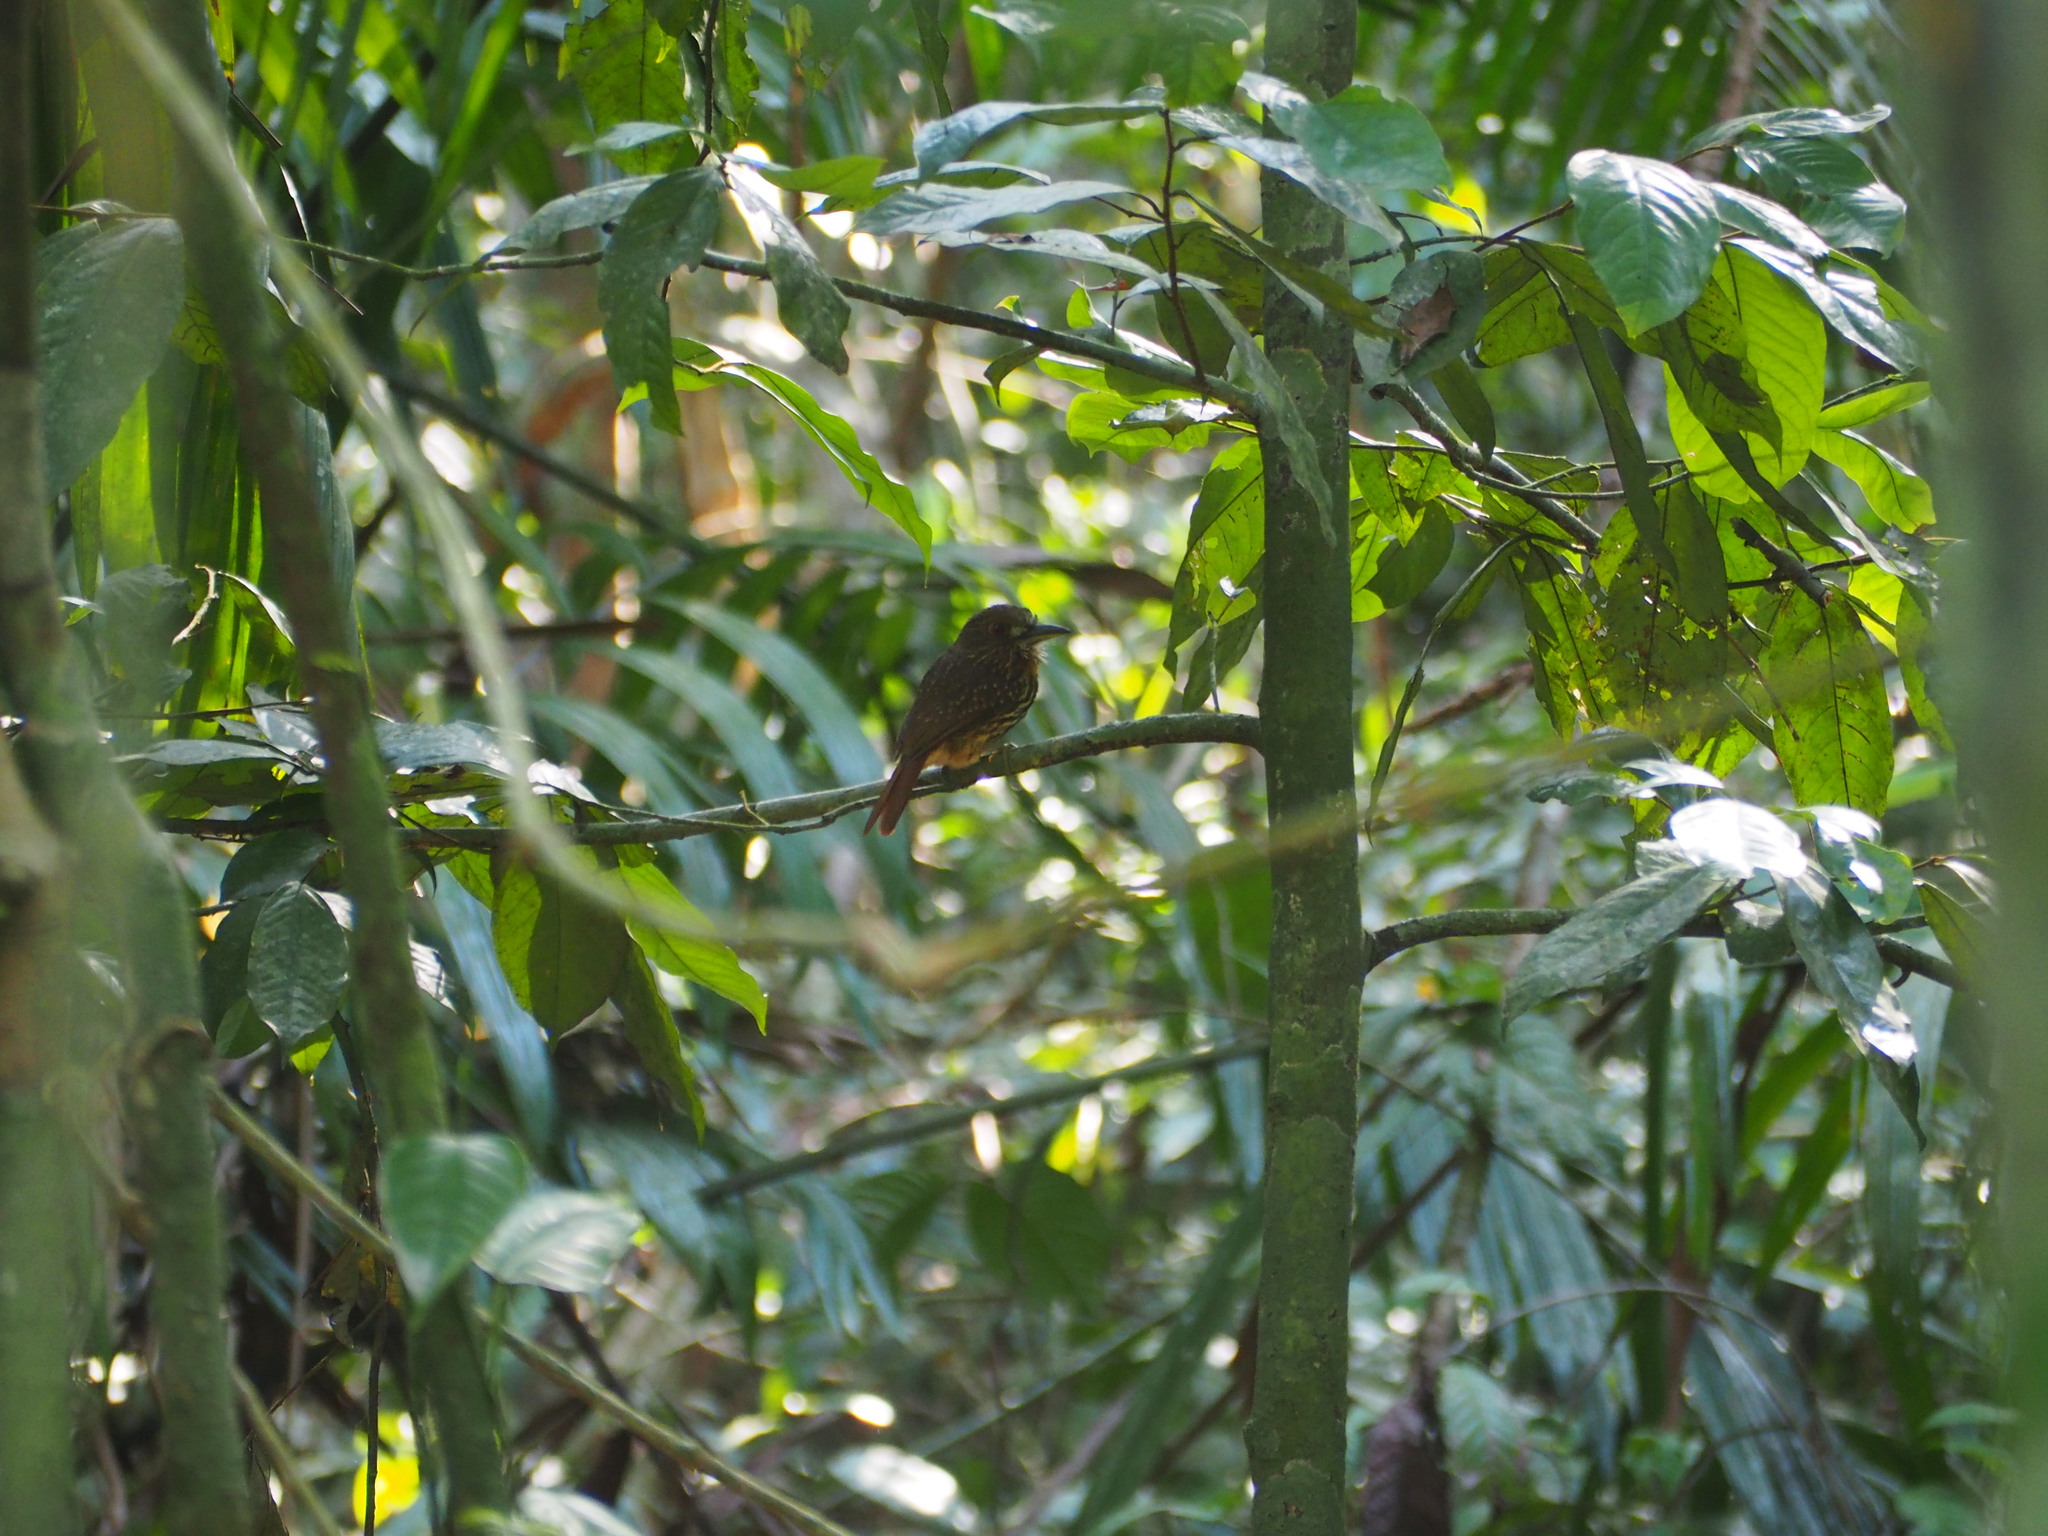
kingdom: Animalia
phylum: Chordata
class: Aves
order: Piciformes
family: Bucconidae
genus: Malacoptila
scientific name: Malacoptila panamensis
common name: White-whiskered puffbird
